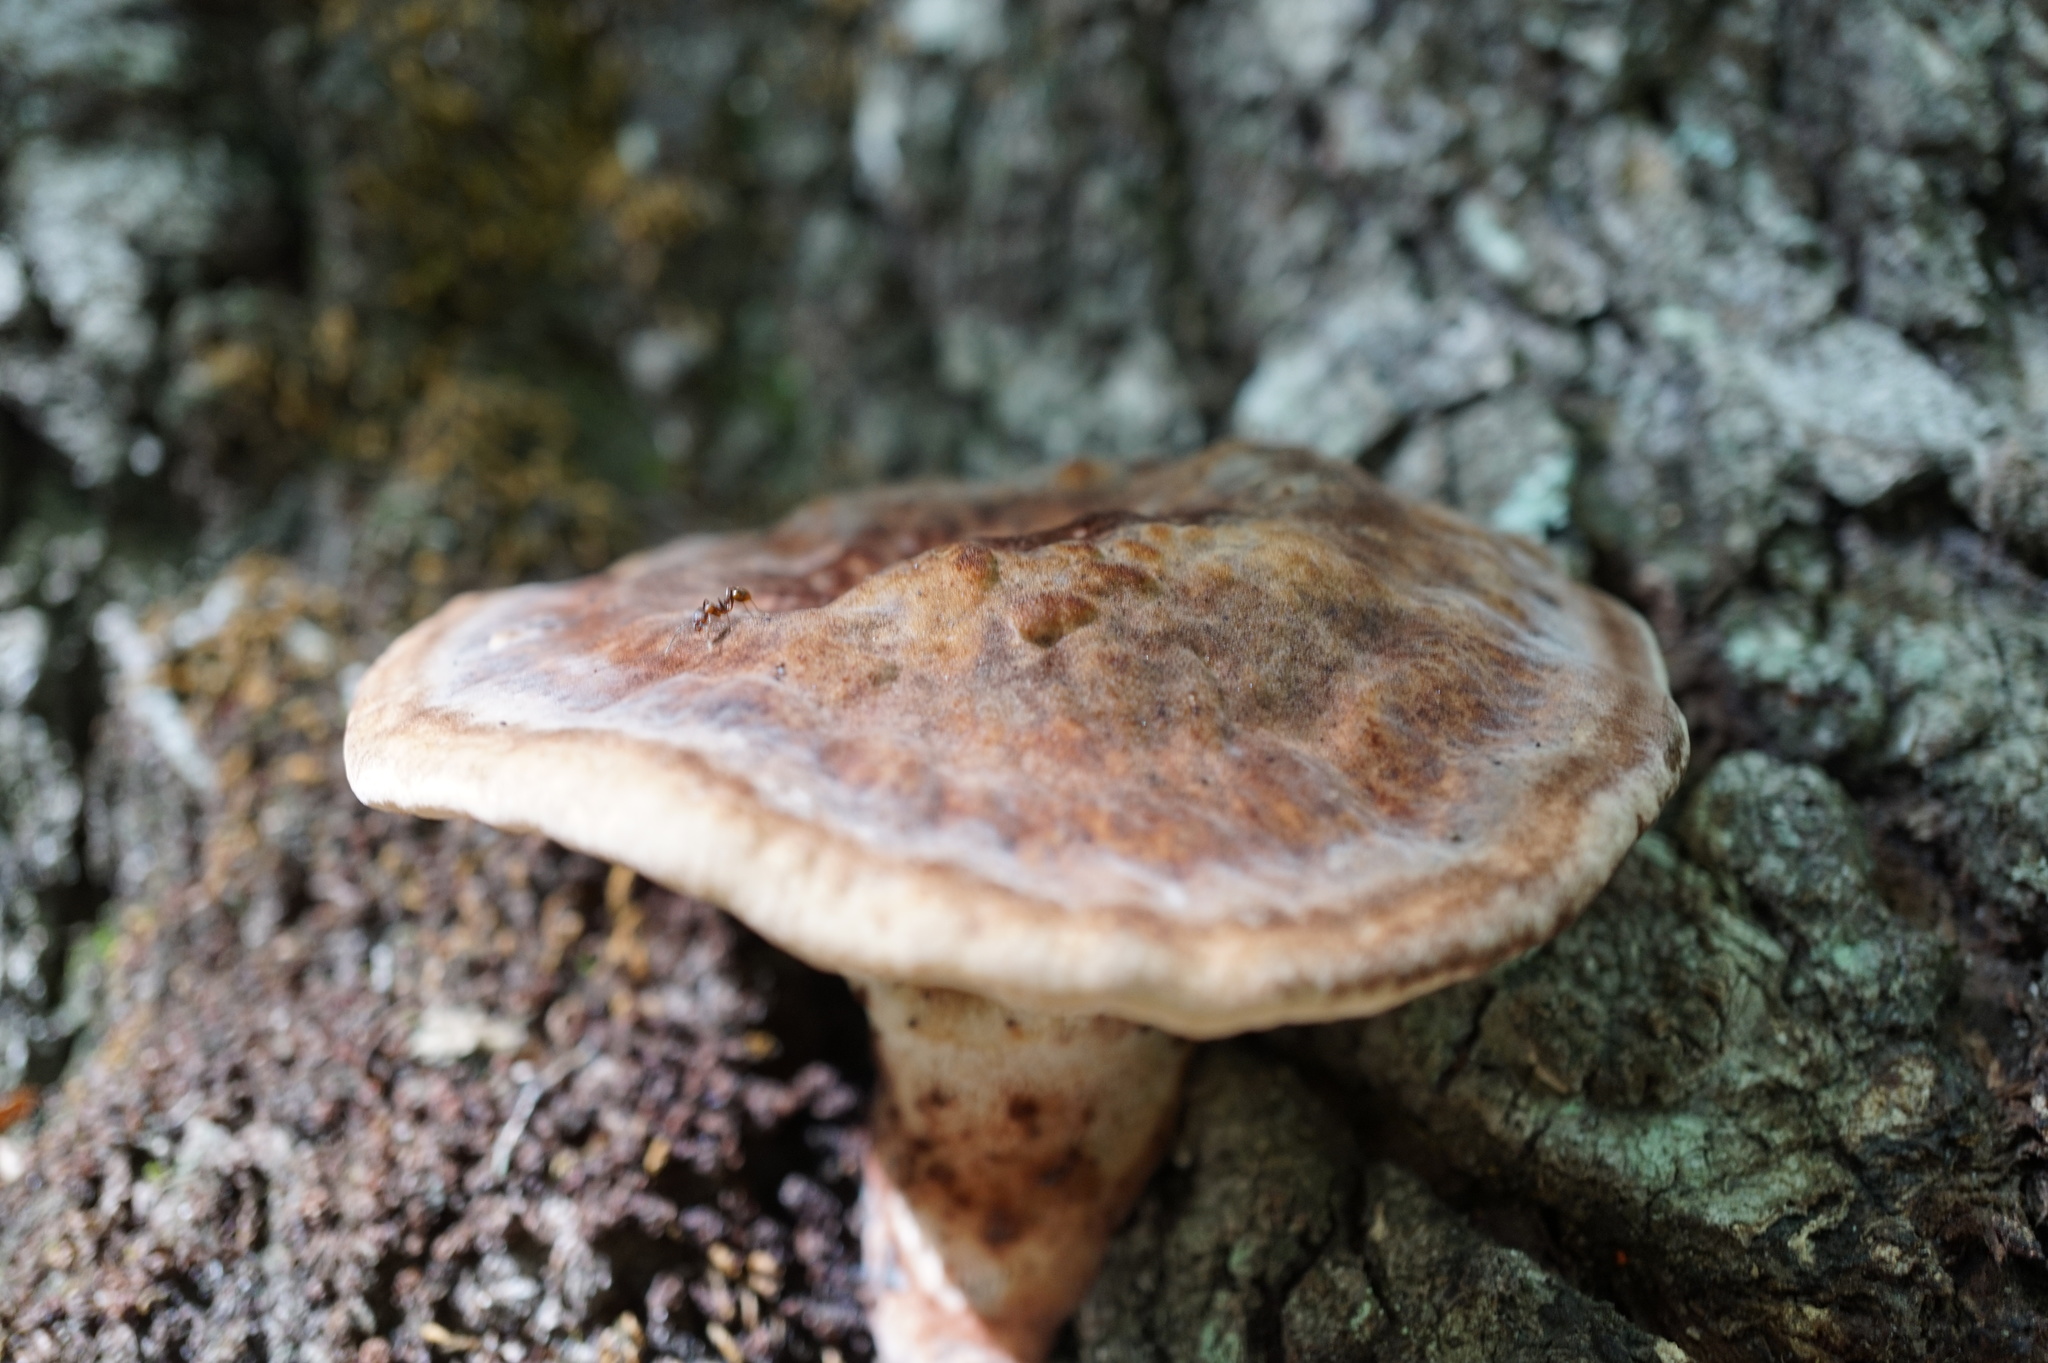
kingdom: Fungi
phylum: Basidiomycota
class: Agaricomycetes
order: Polyporales
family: Laetiporaceae
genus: Berkcurtia
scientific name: Berkcurtia persicina
